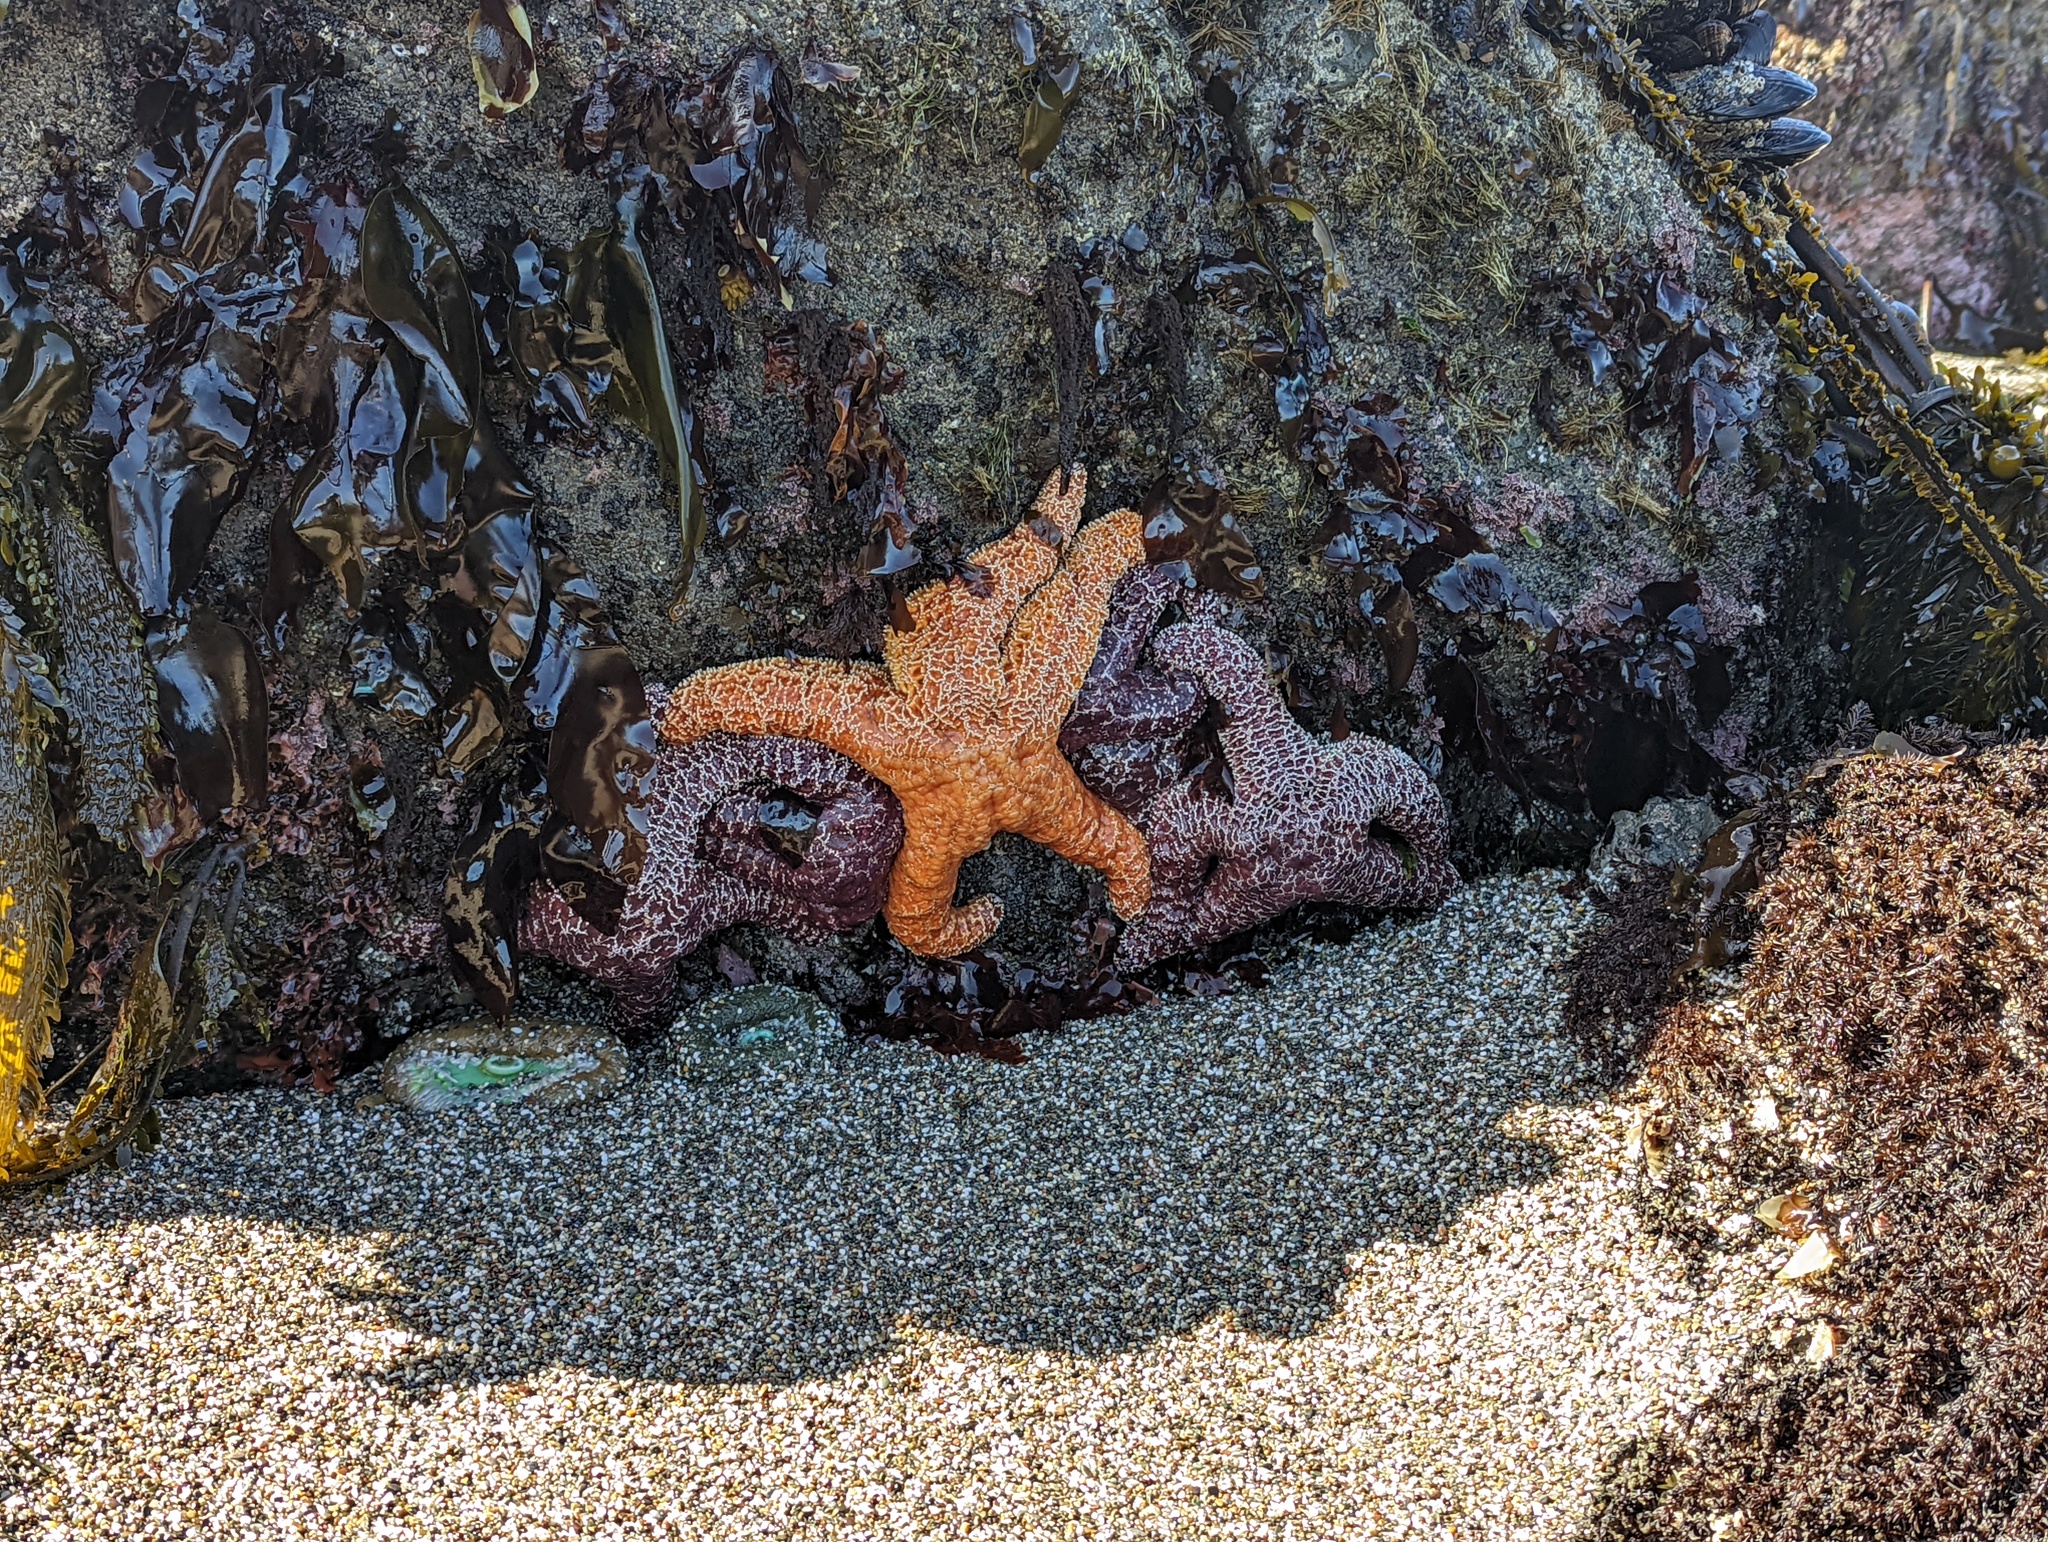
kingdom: Animalia
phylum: Echinodermata
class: Asteroidea
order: Forcipulatida
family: Asteriidae
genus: Pisaster
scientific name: Pisaster ochraceus
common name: Ochre stars
